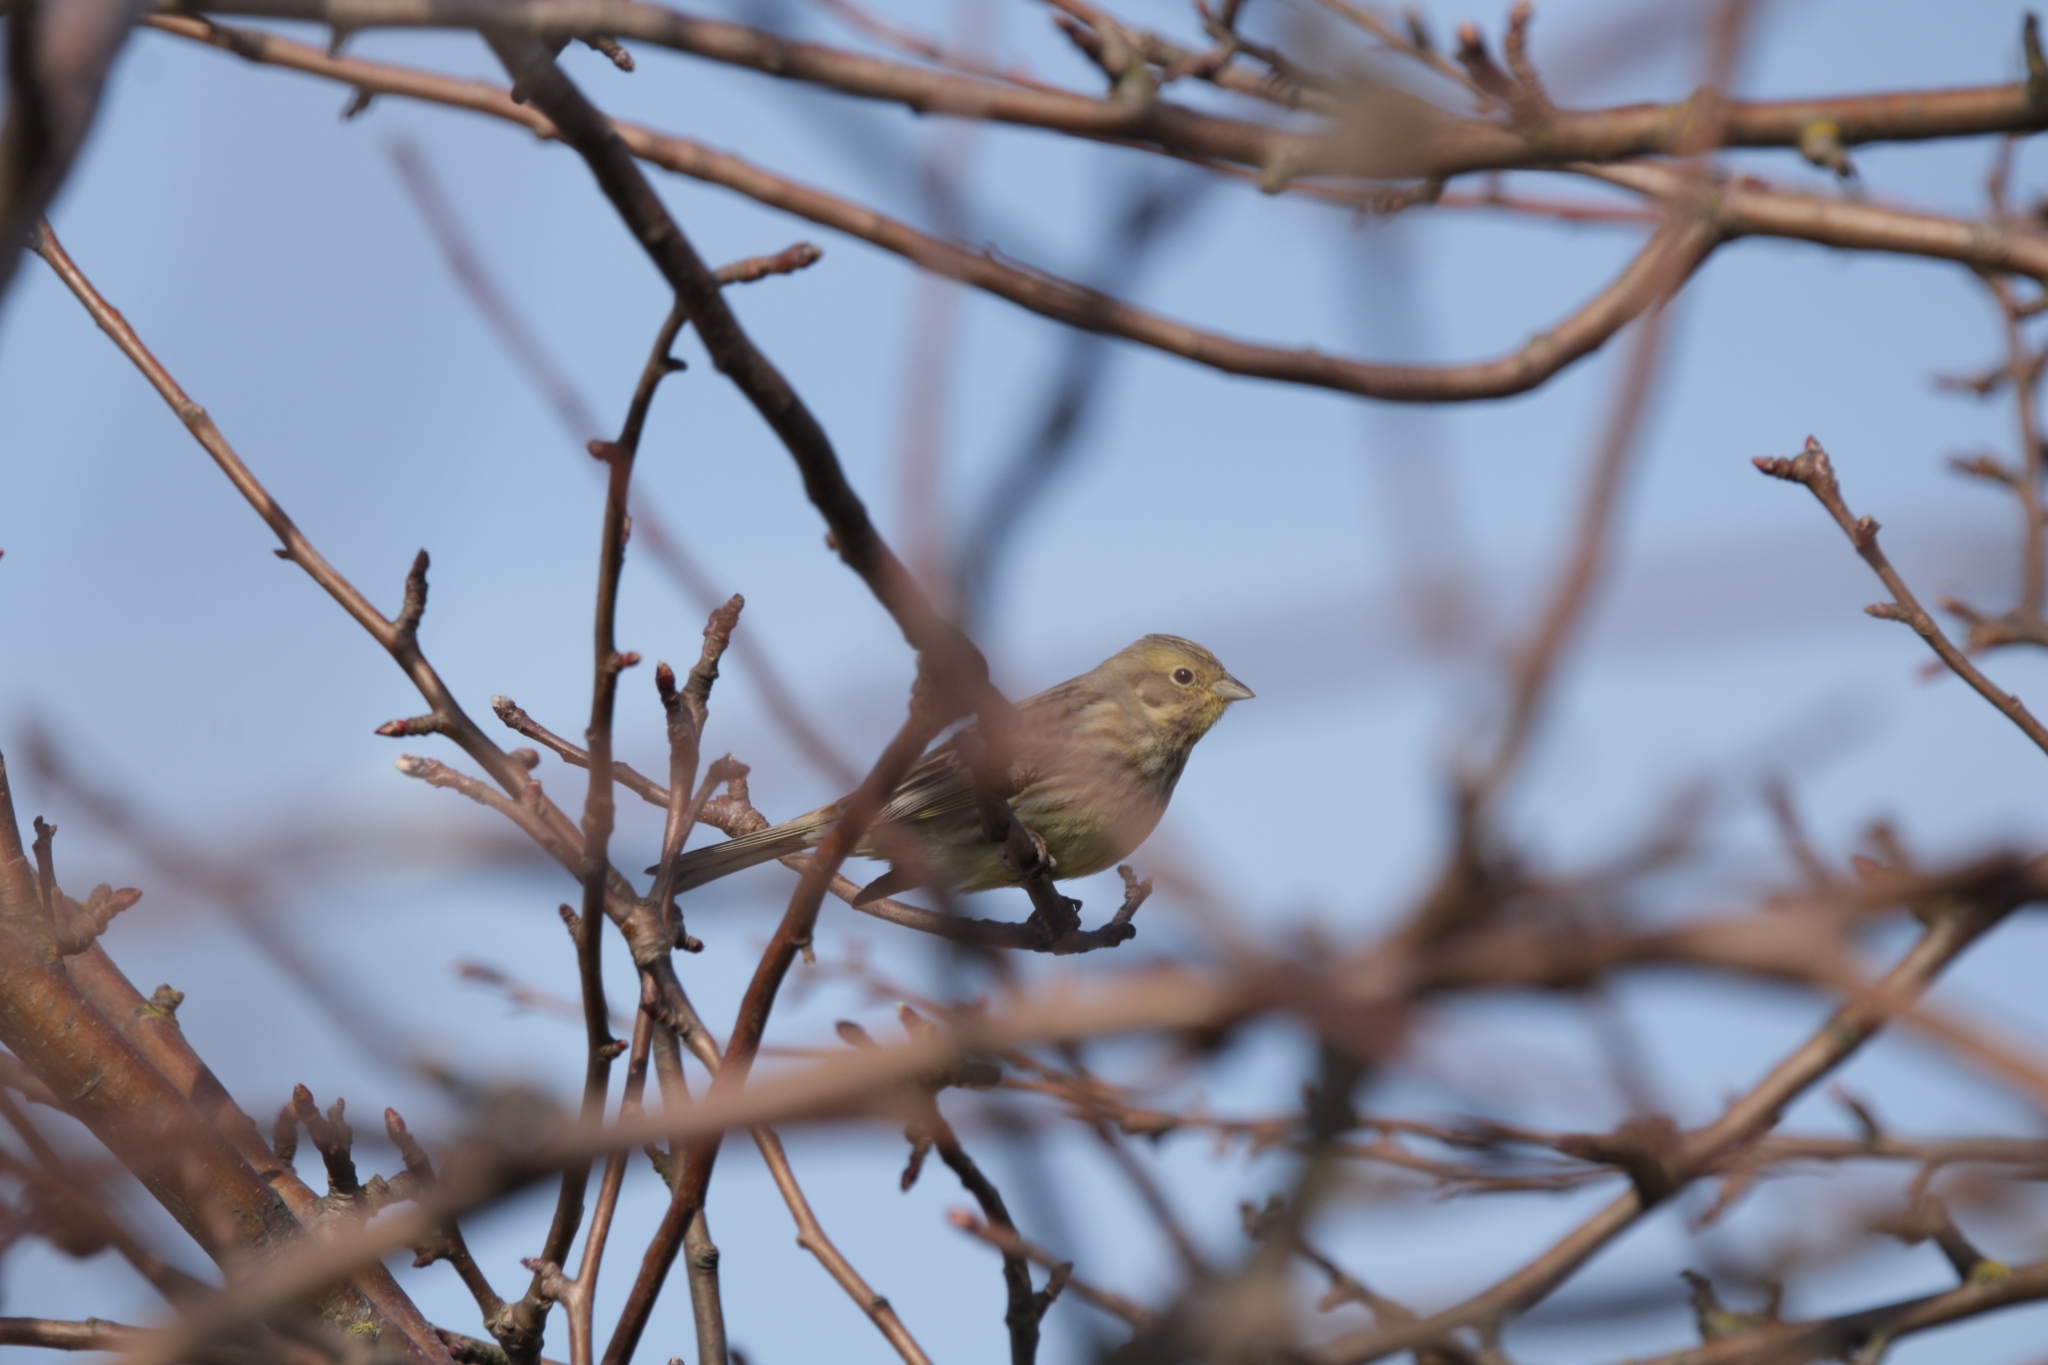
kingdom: Animalia
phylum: Chordata
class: Aves
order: Passeriformes
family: Emberizidae
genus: Emberiza
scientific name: Emberiza citrinella
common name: Yellowhammer
